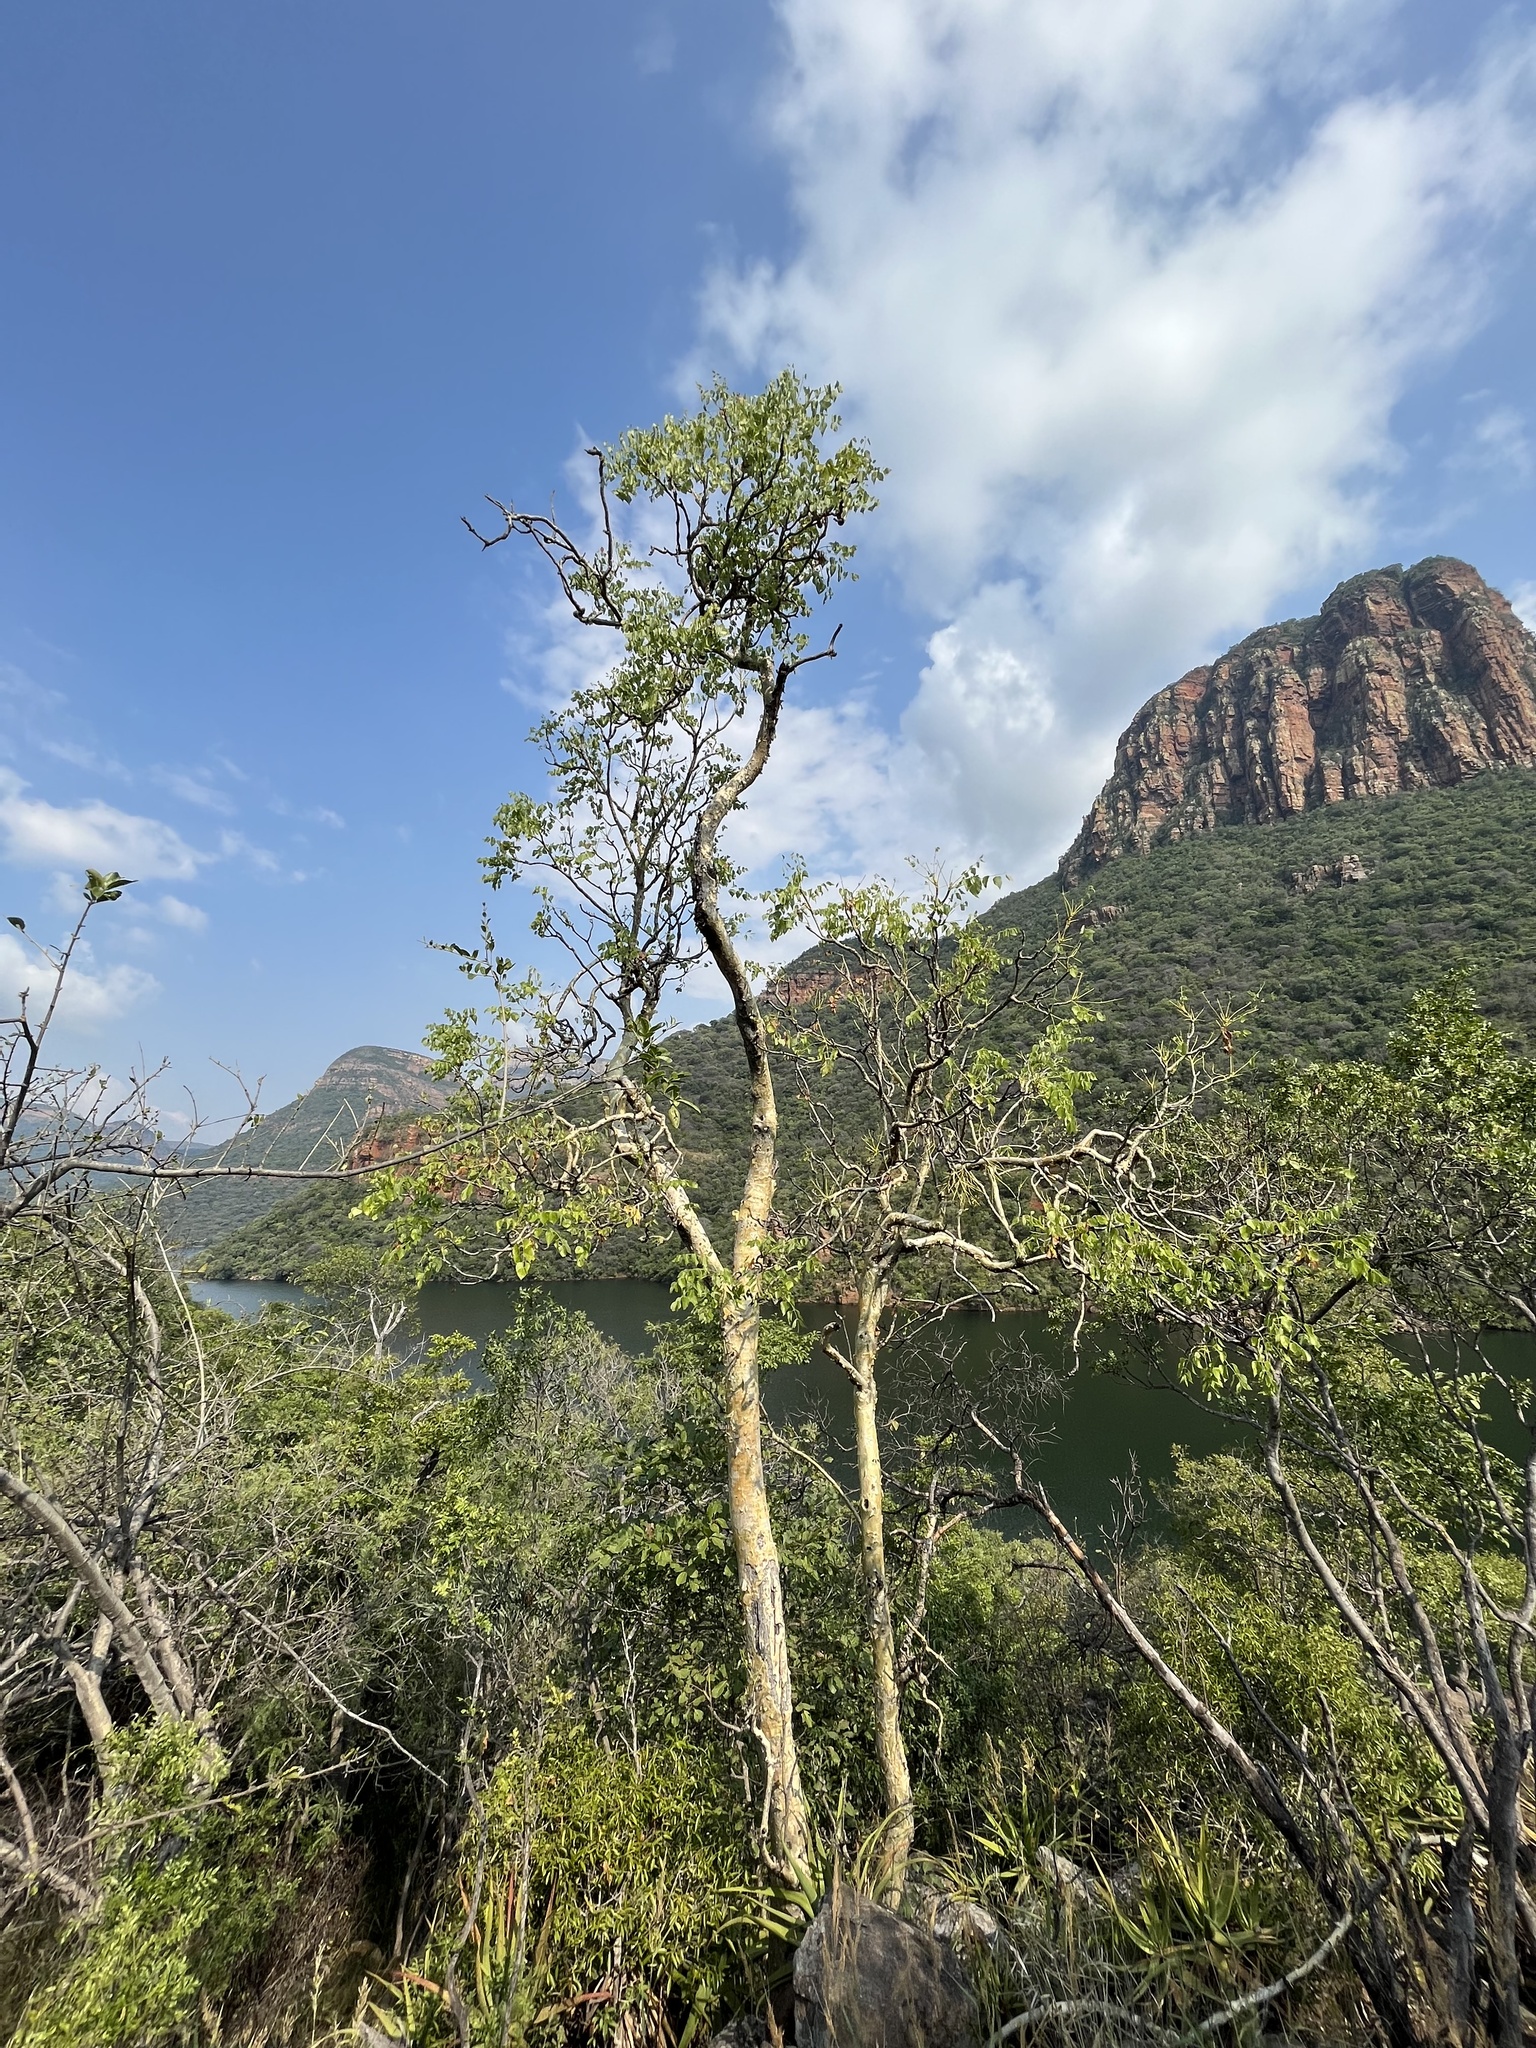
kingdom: Plantae
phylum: Tracheophyta
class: Magnoliopsida
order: Apiales
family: Apiaceae
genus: Steganotaenia
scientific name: Steganotaenia araliacea
